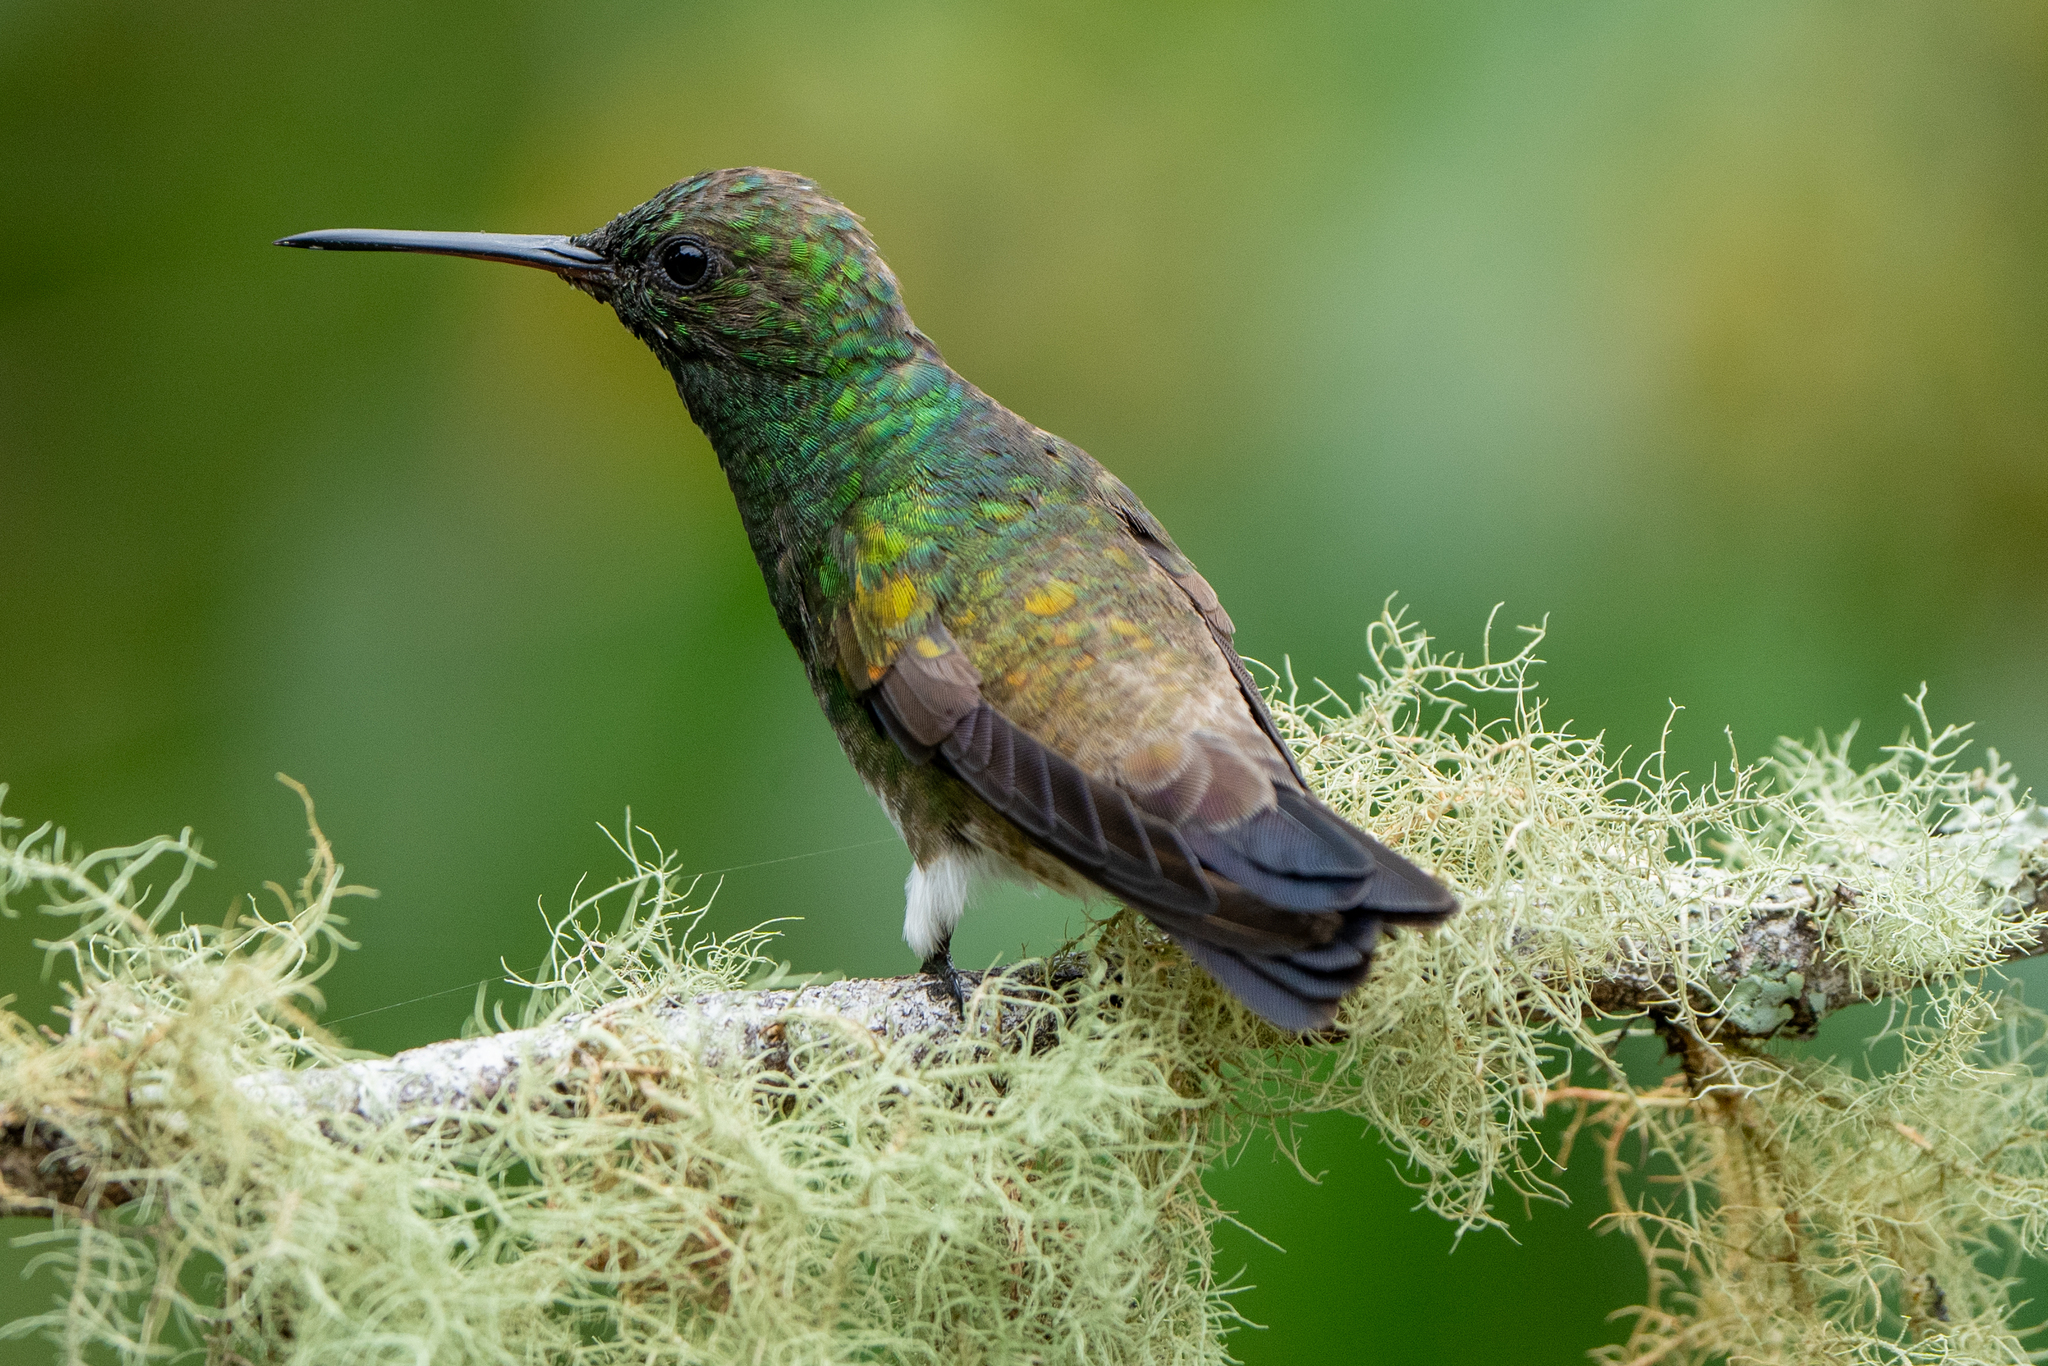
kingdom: Animalia
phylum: Chordata
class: Aves
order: Apodiformes
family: Trochilidae
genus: Saucerottia
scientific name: Saucerottia edward
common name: Snowy-bellied hummingbird
